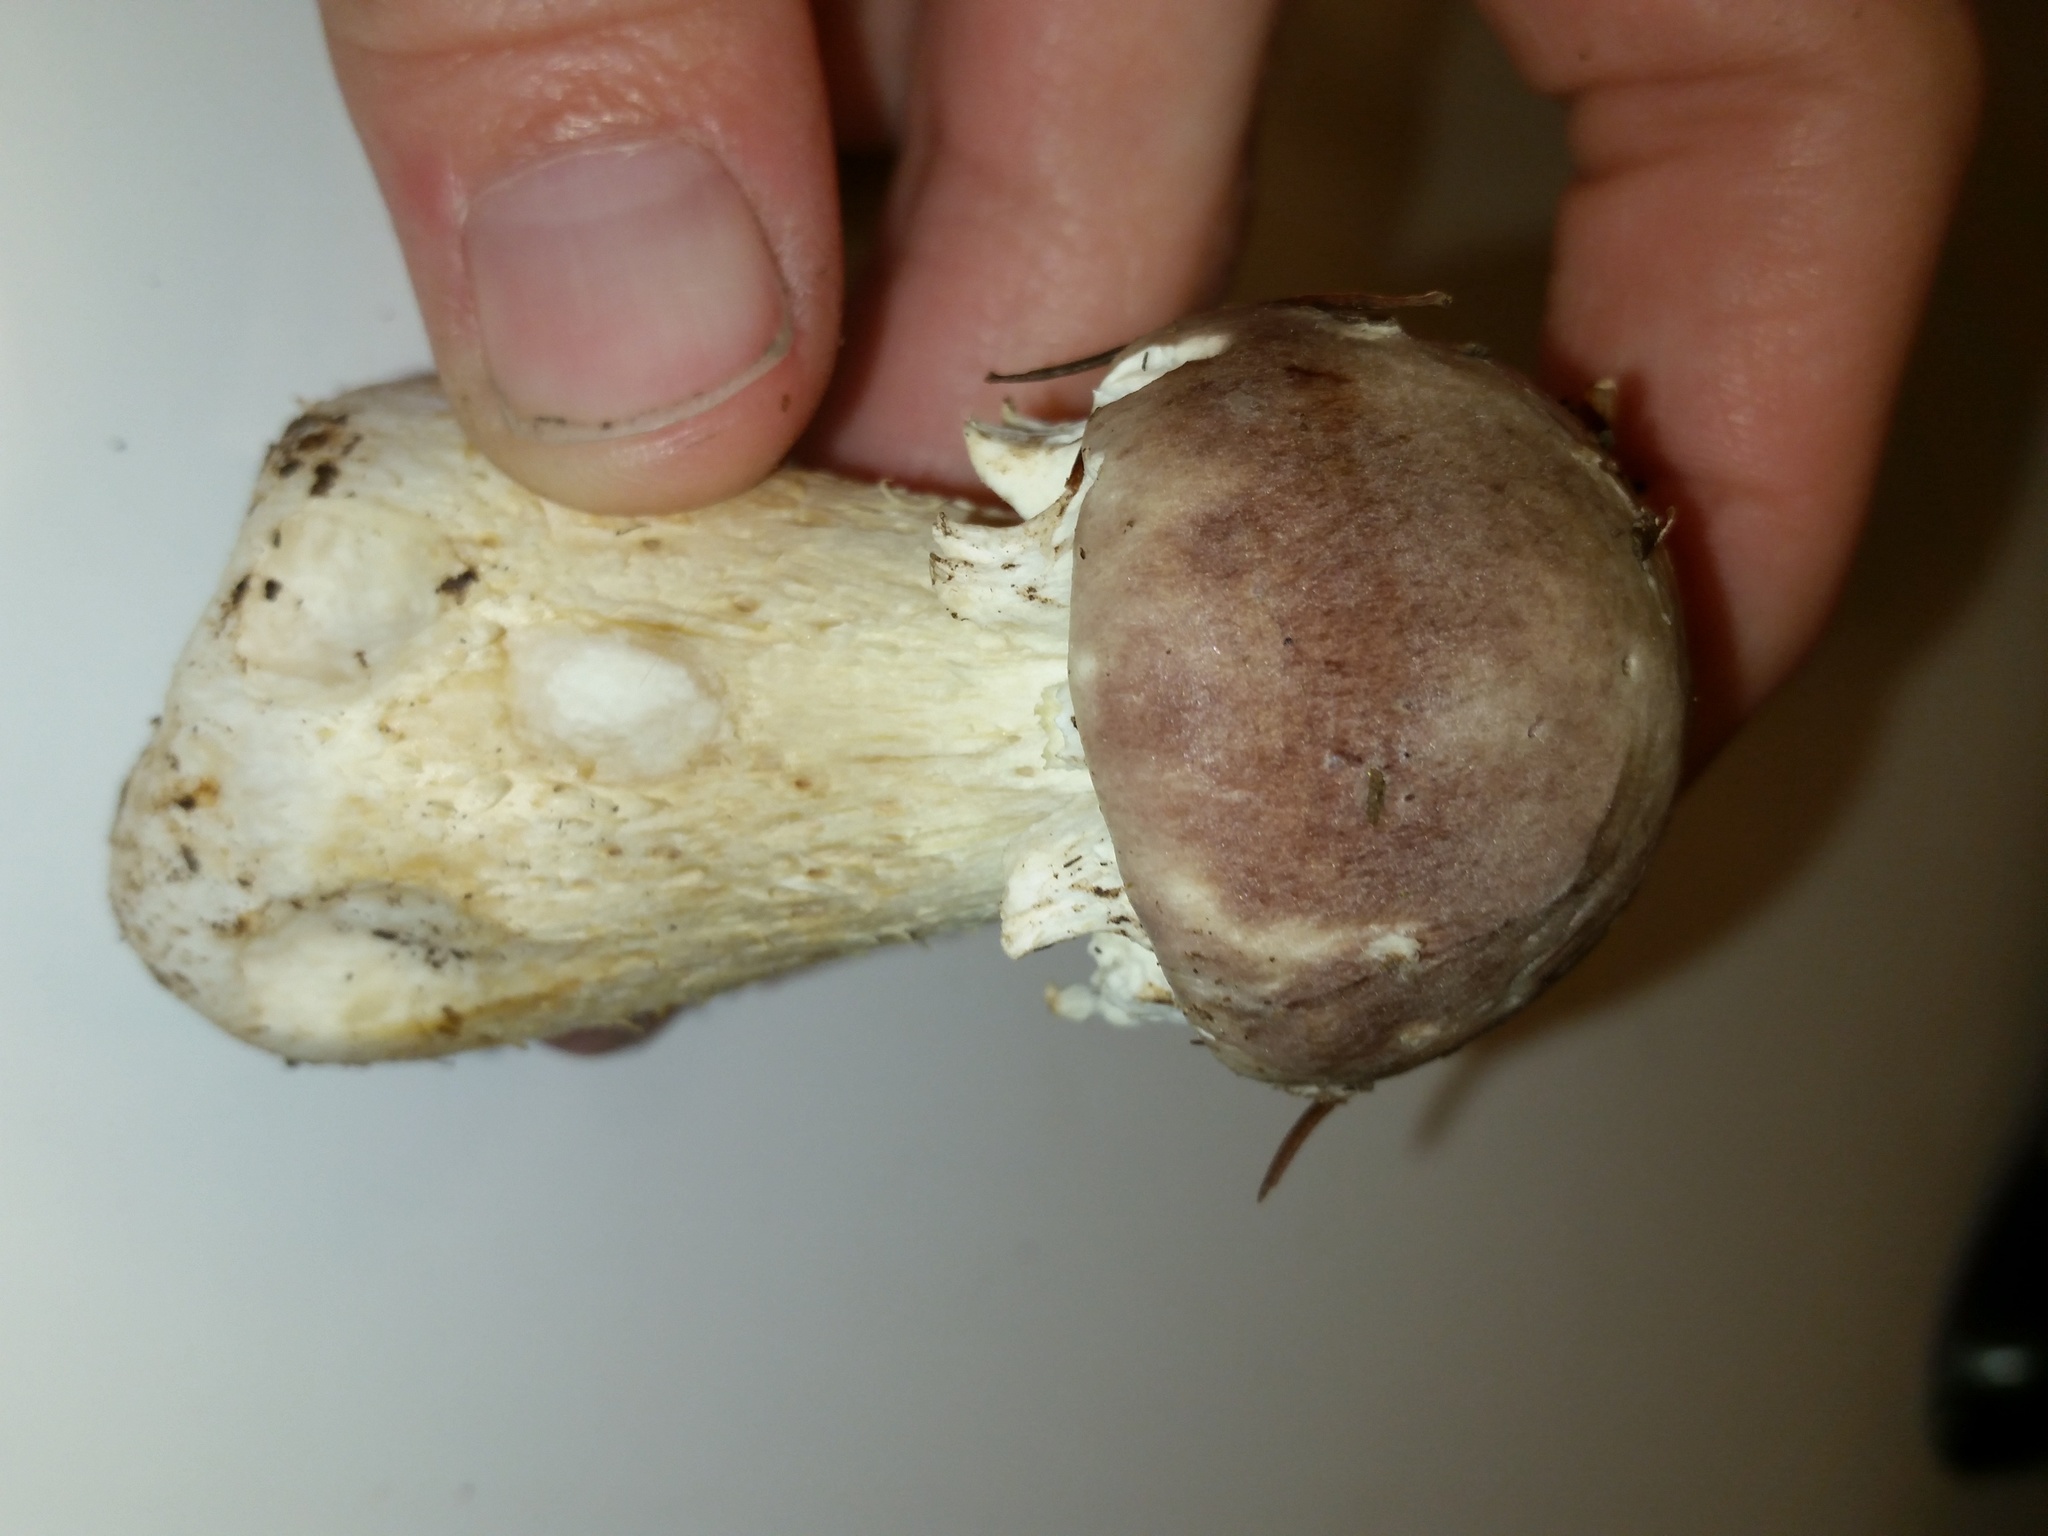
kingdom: Fungi
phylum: Basidiomycota
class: Agaricomycetes
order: Agaricales
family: Strophariaceae
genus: Stropharia
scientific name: Stropharia rugosoannulata
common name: Wine roundhead
